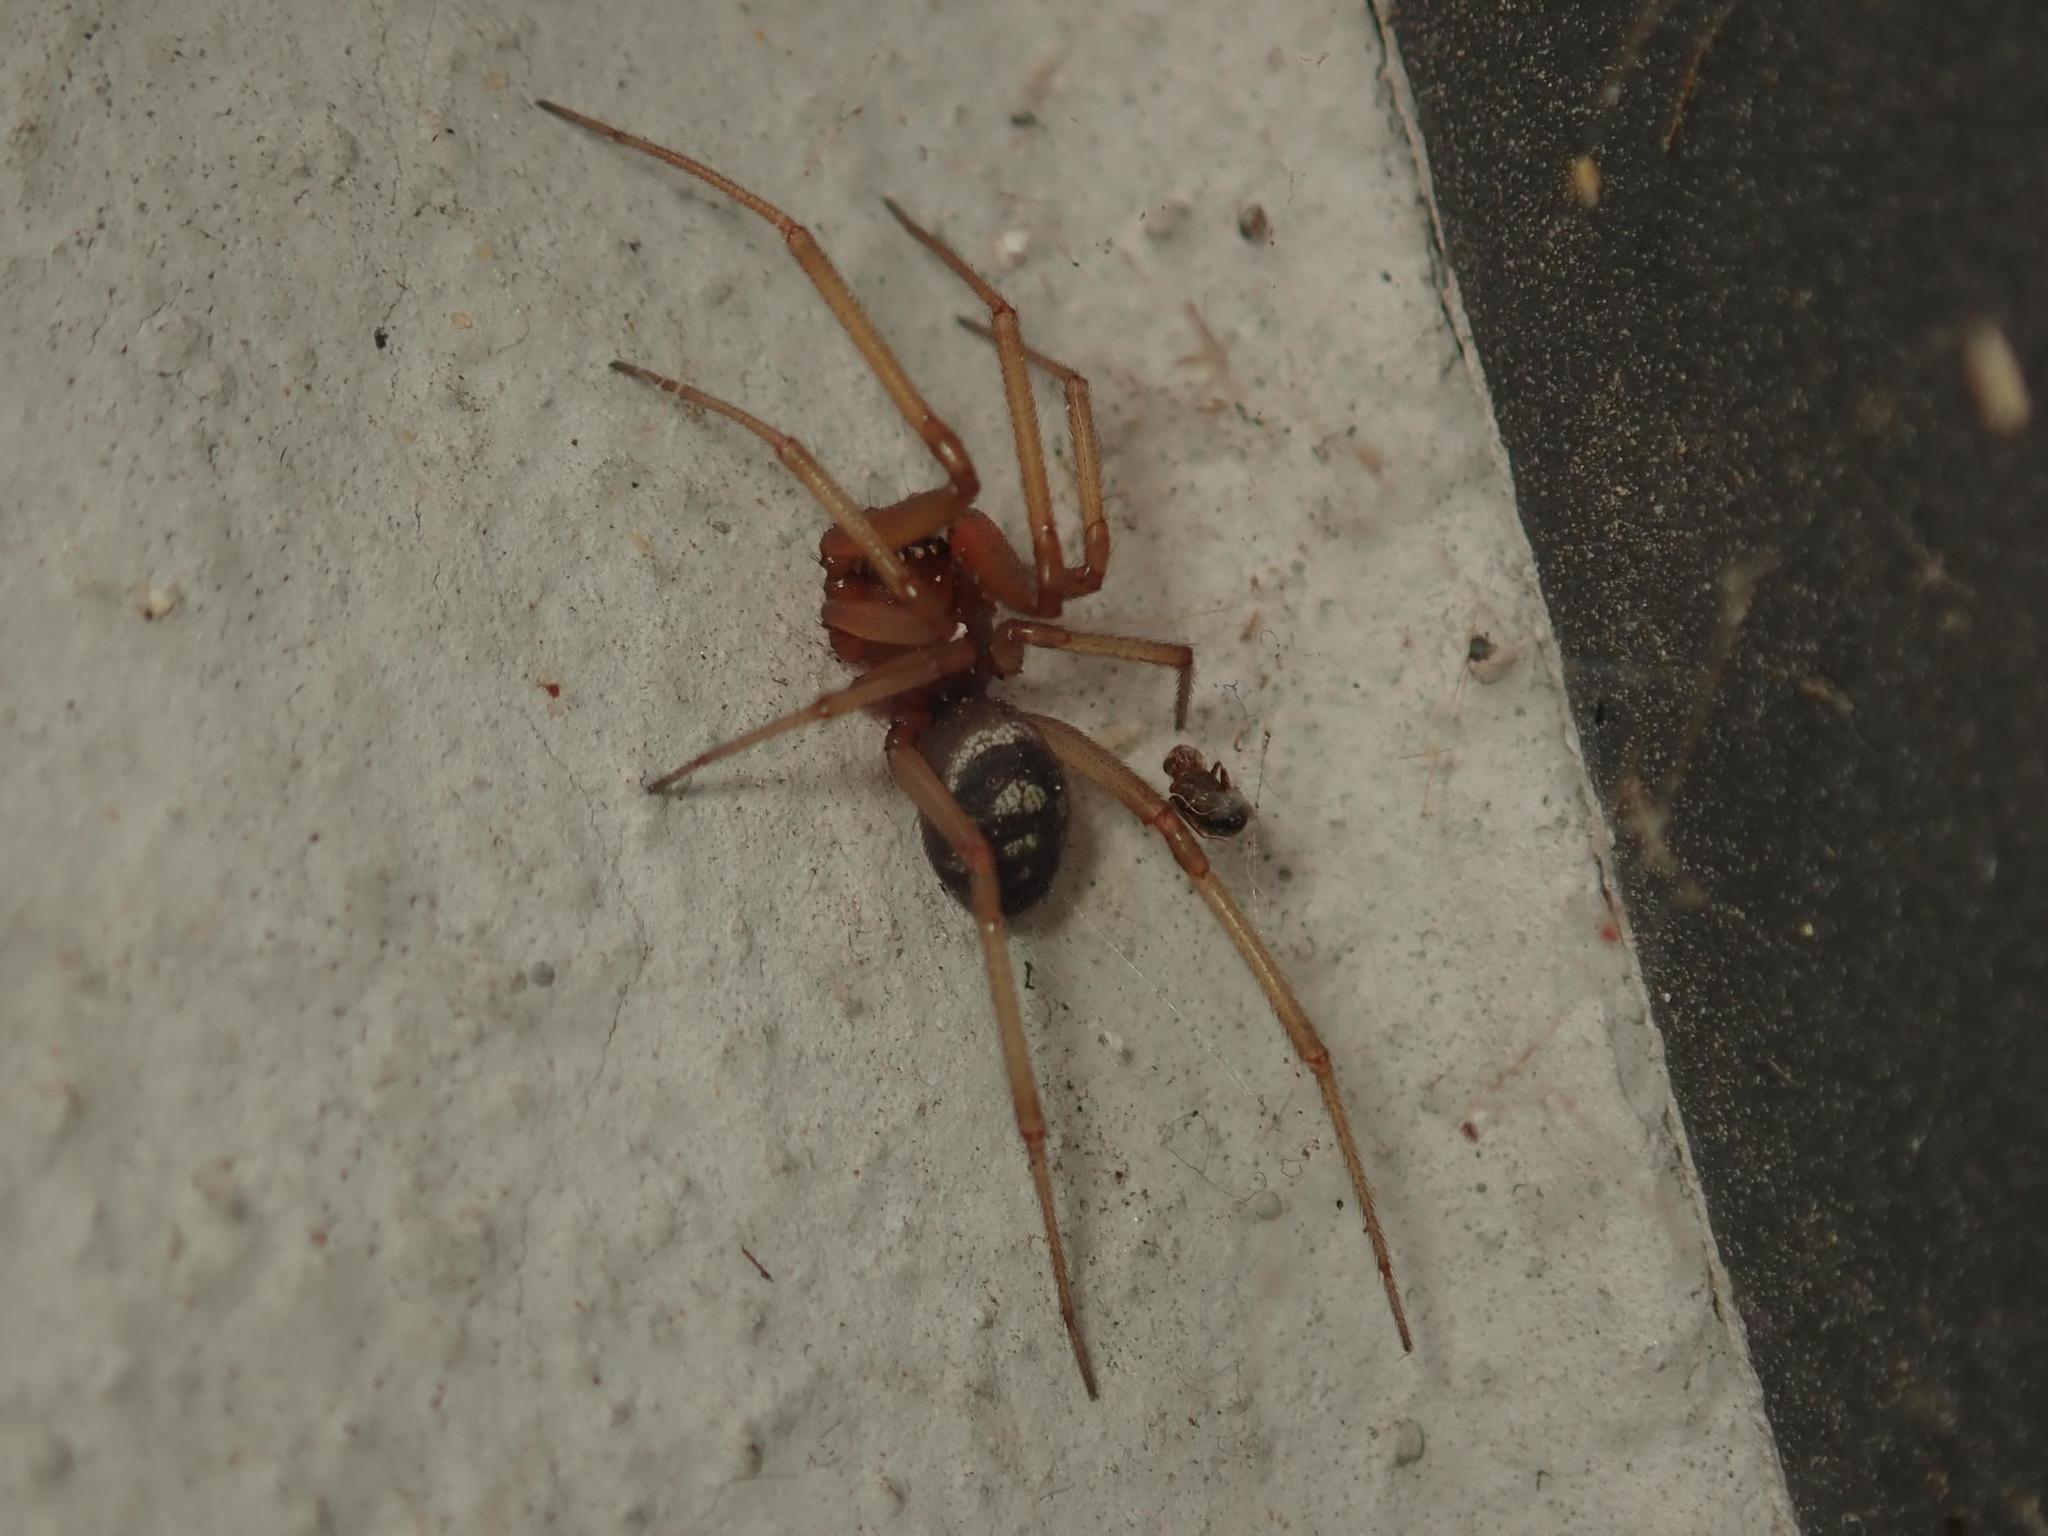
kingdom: Animalia
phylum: Arthropoda
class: Arachnida
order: Araneae
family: Theridiidae
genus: Steatoda
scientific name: Steatoda grossa
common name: False black widow
